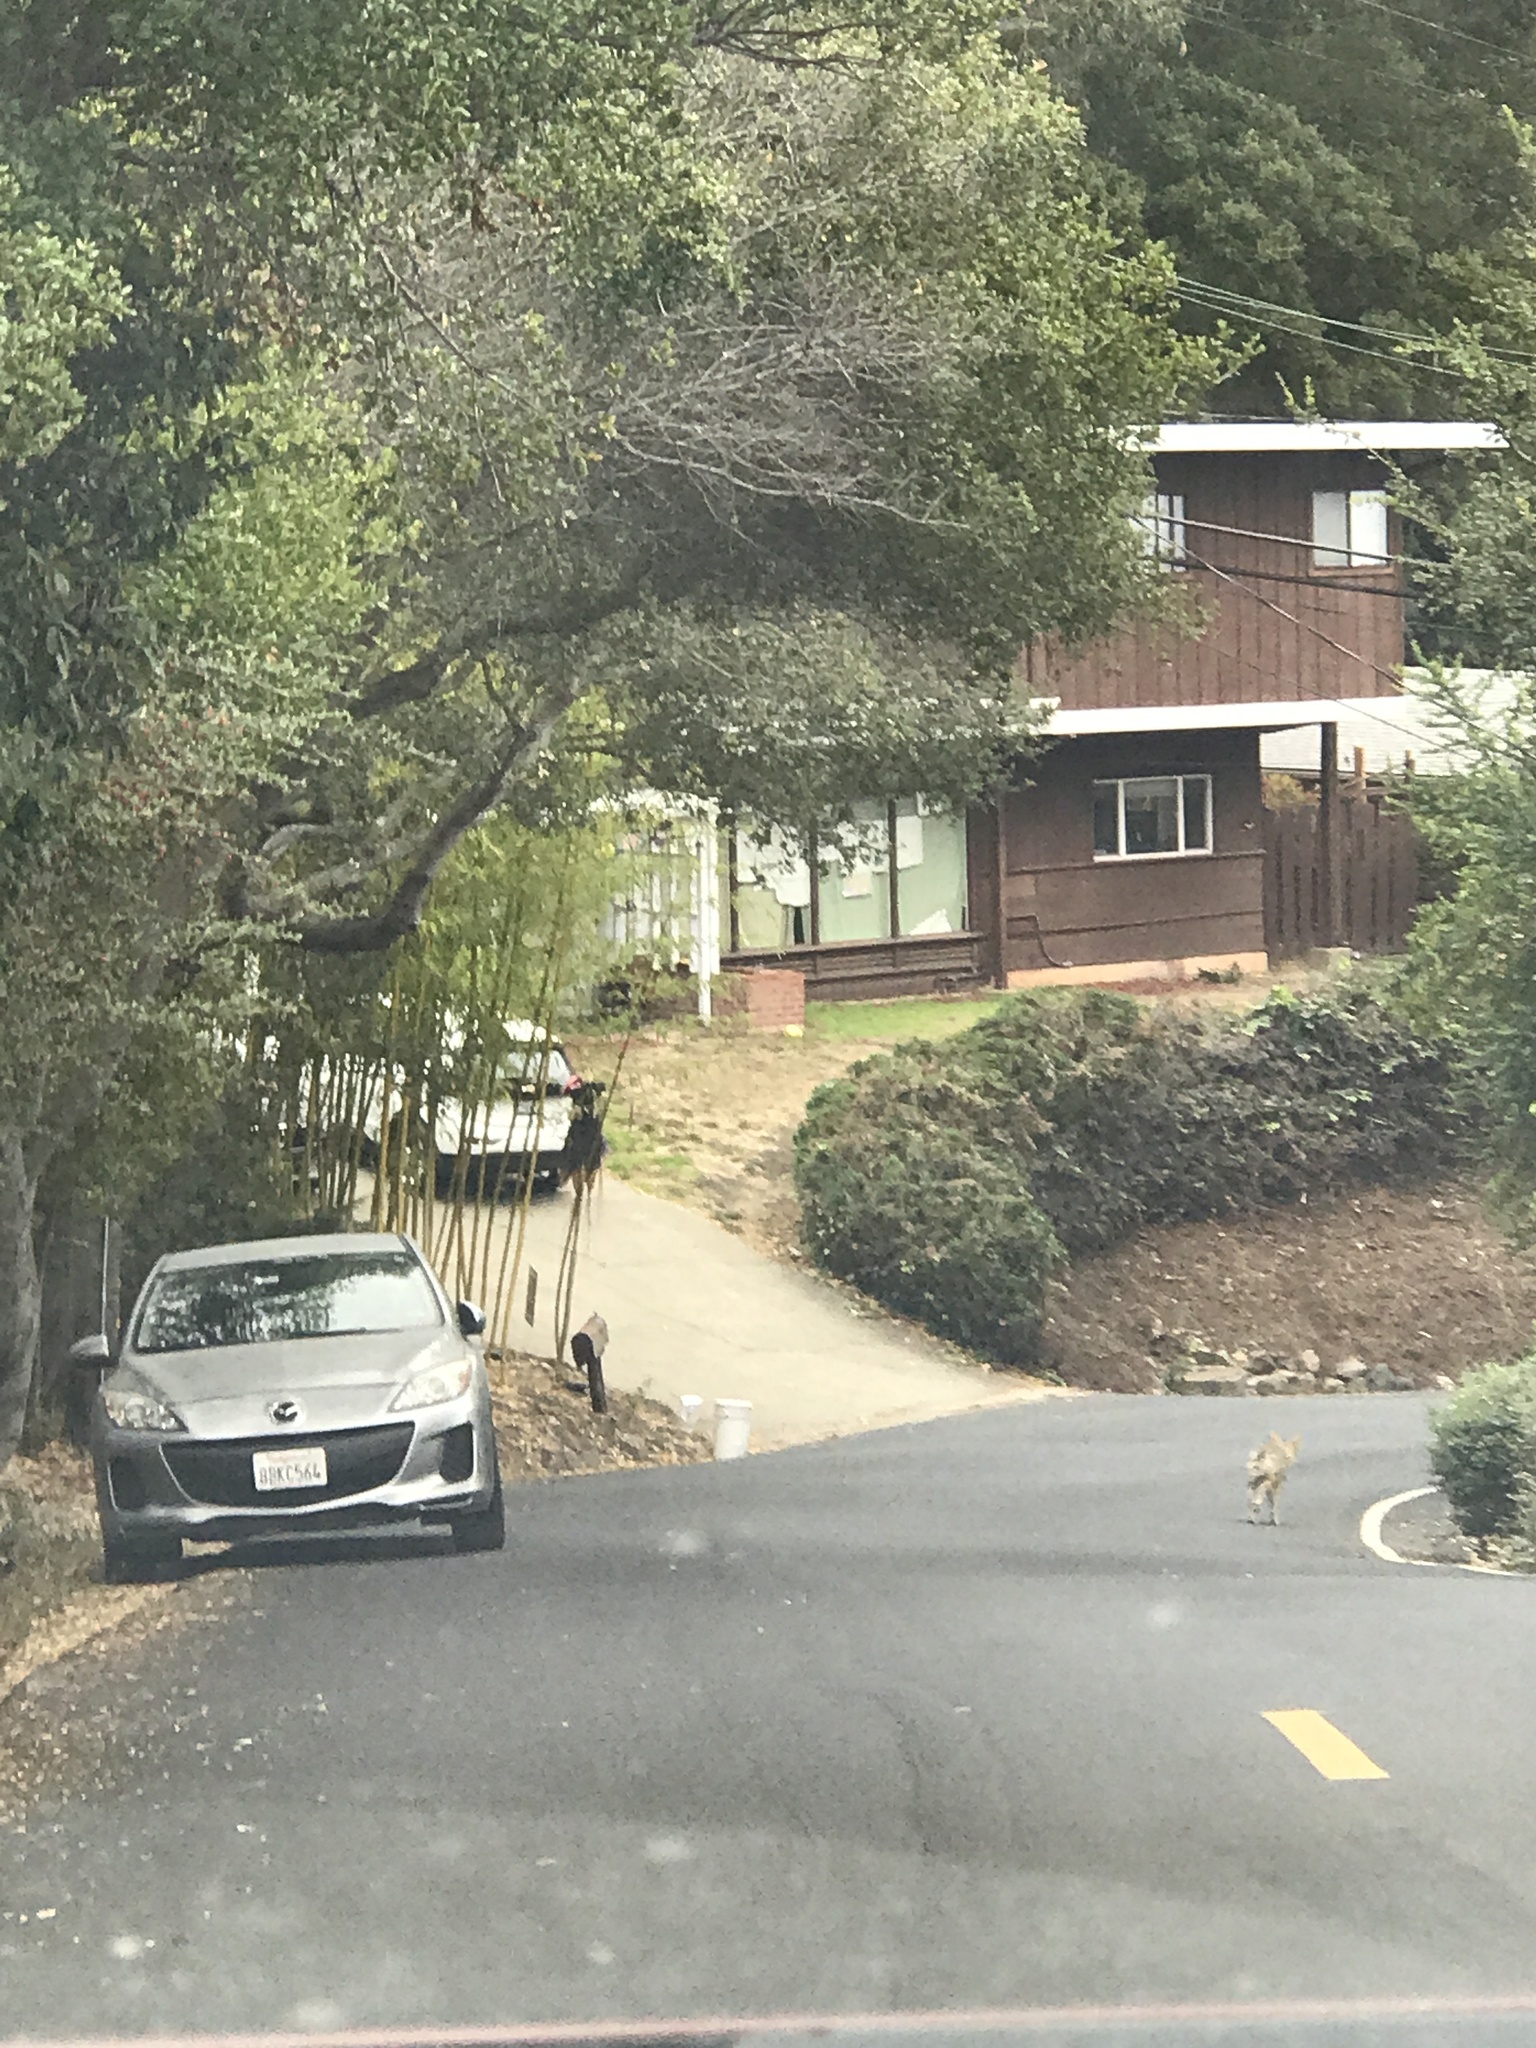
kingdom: Animalia
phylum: Chordata
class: Mammalia
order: Carnivora
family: Canidae
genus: Canis
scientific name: Canis latrans
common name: Coyote
